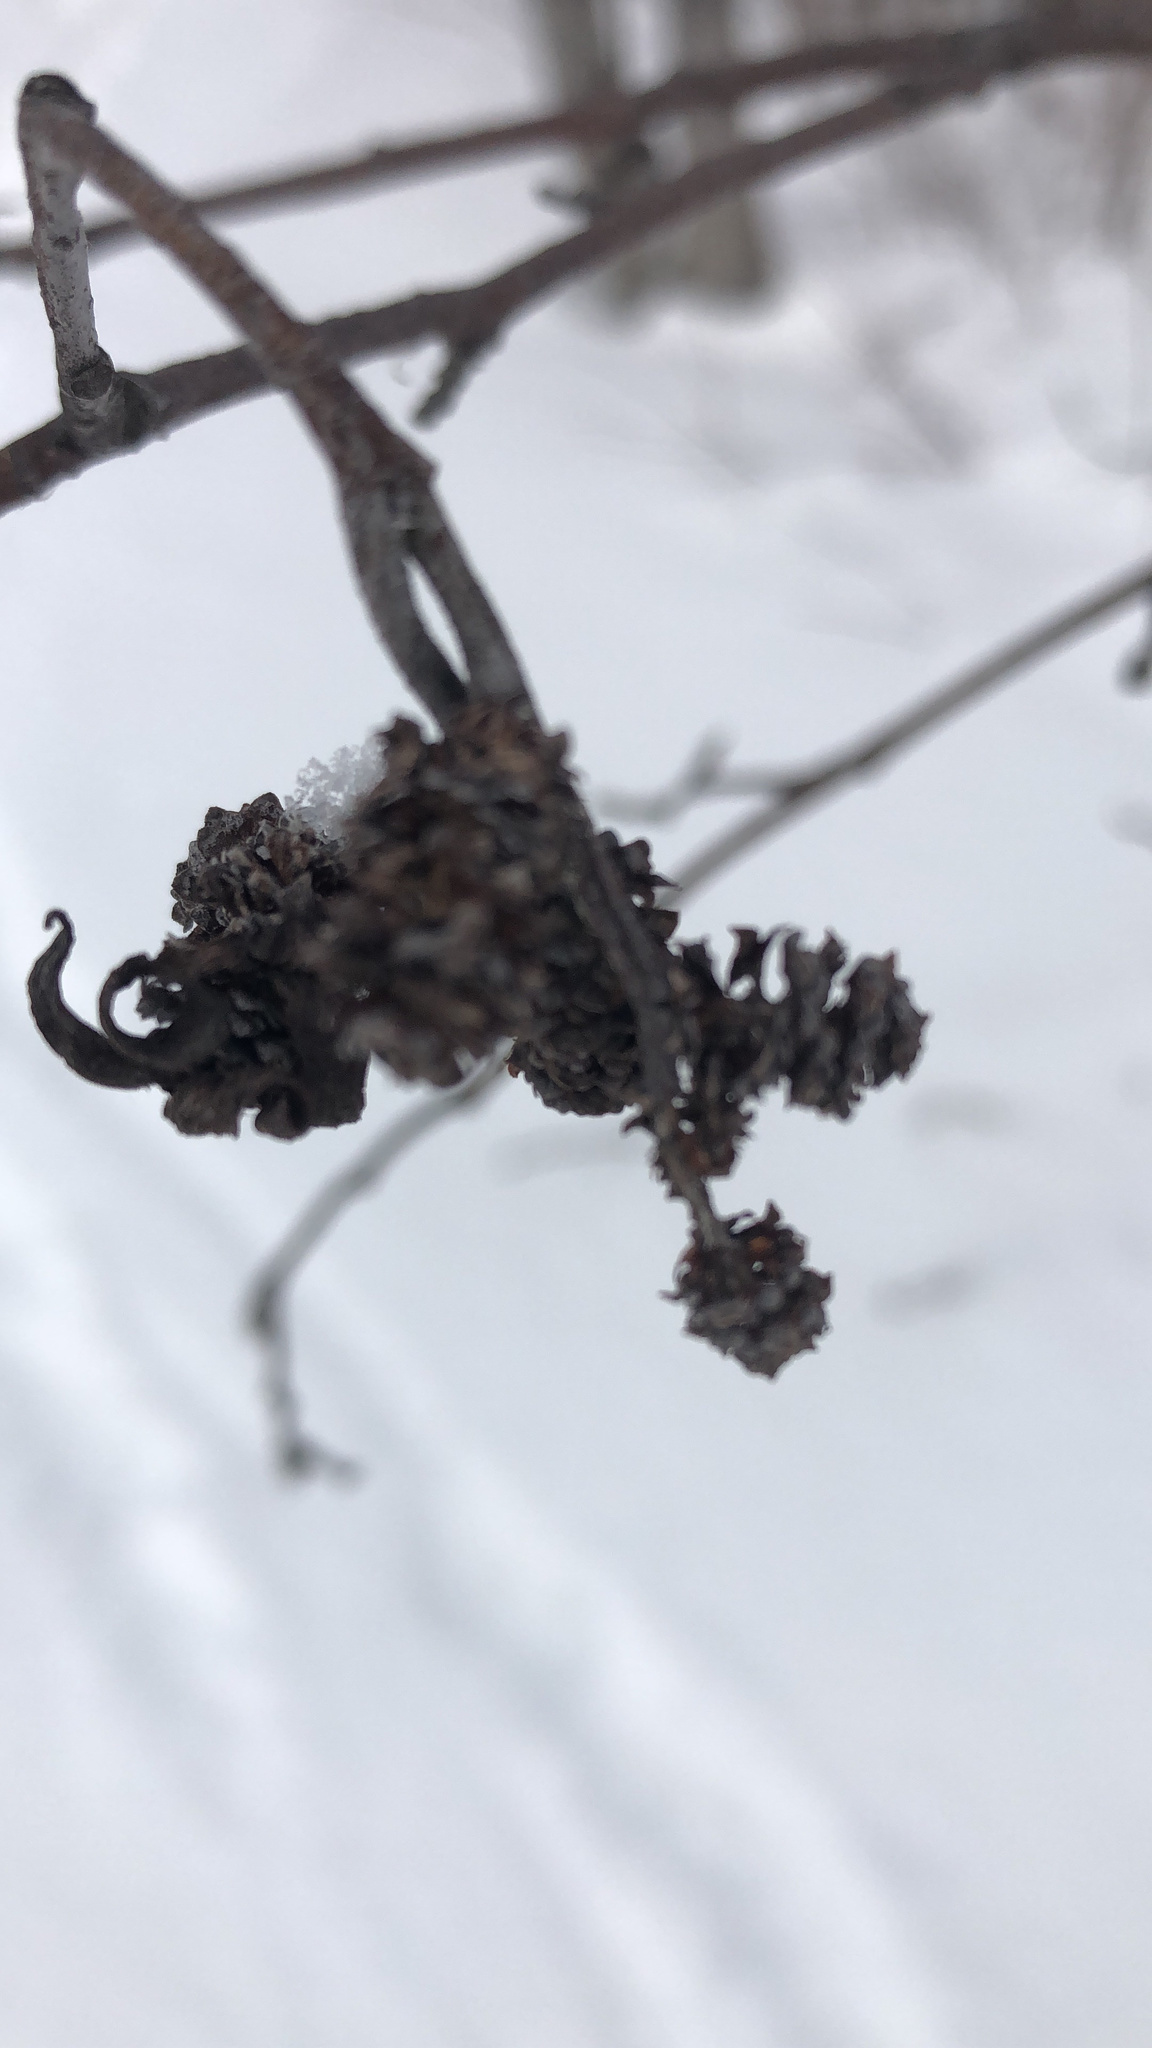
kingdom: Plantae
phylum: Tracheophyta
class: Magnoliopsida
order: Fagales
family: Betulaceae
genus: Alnus
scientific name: Alnus incana
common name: Grey alder
